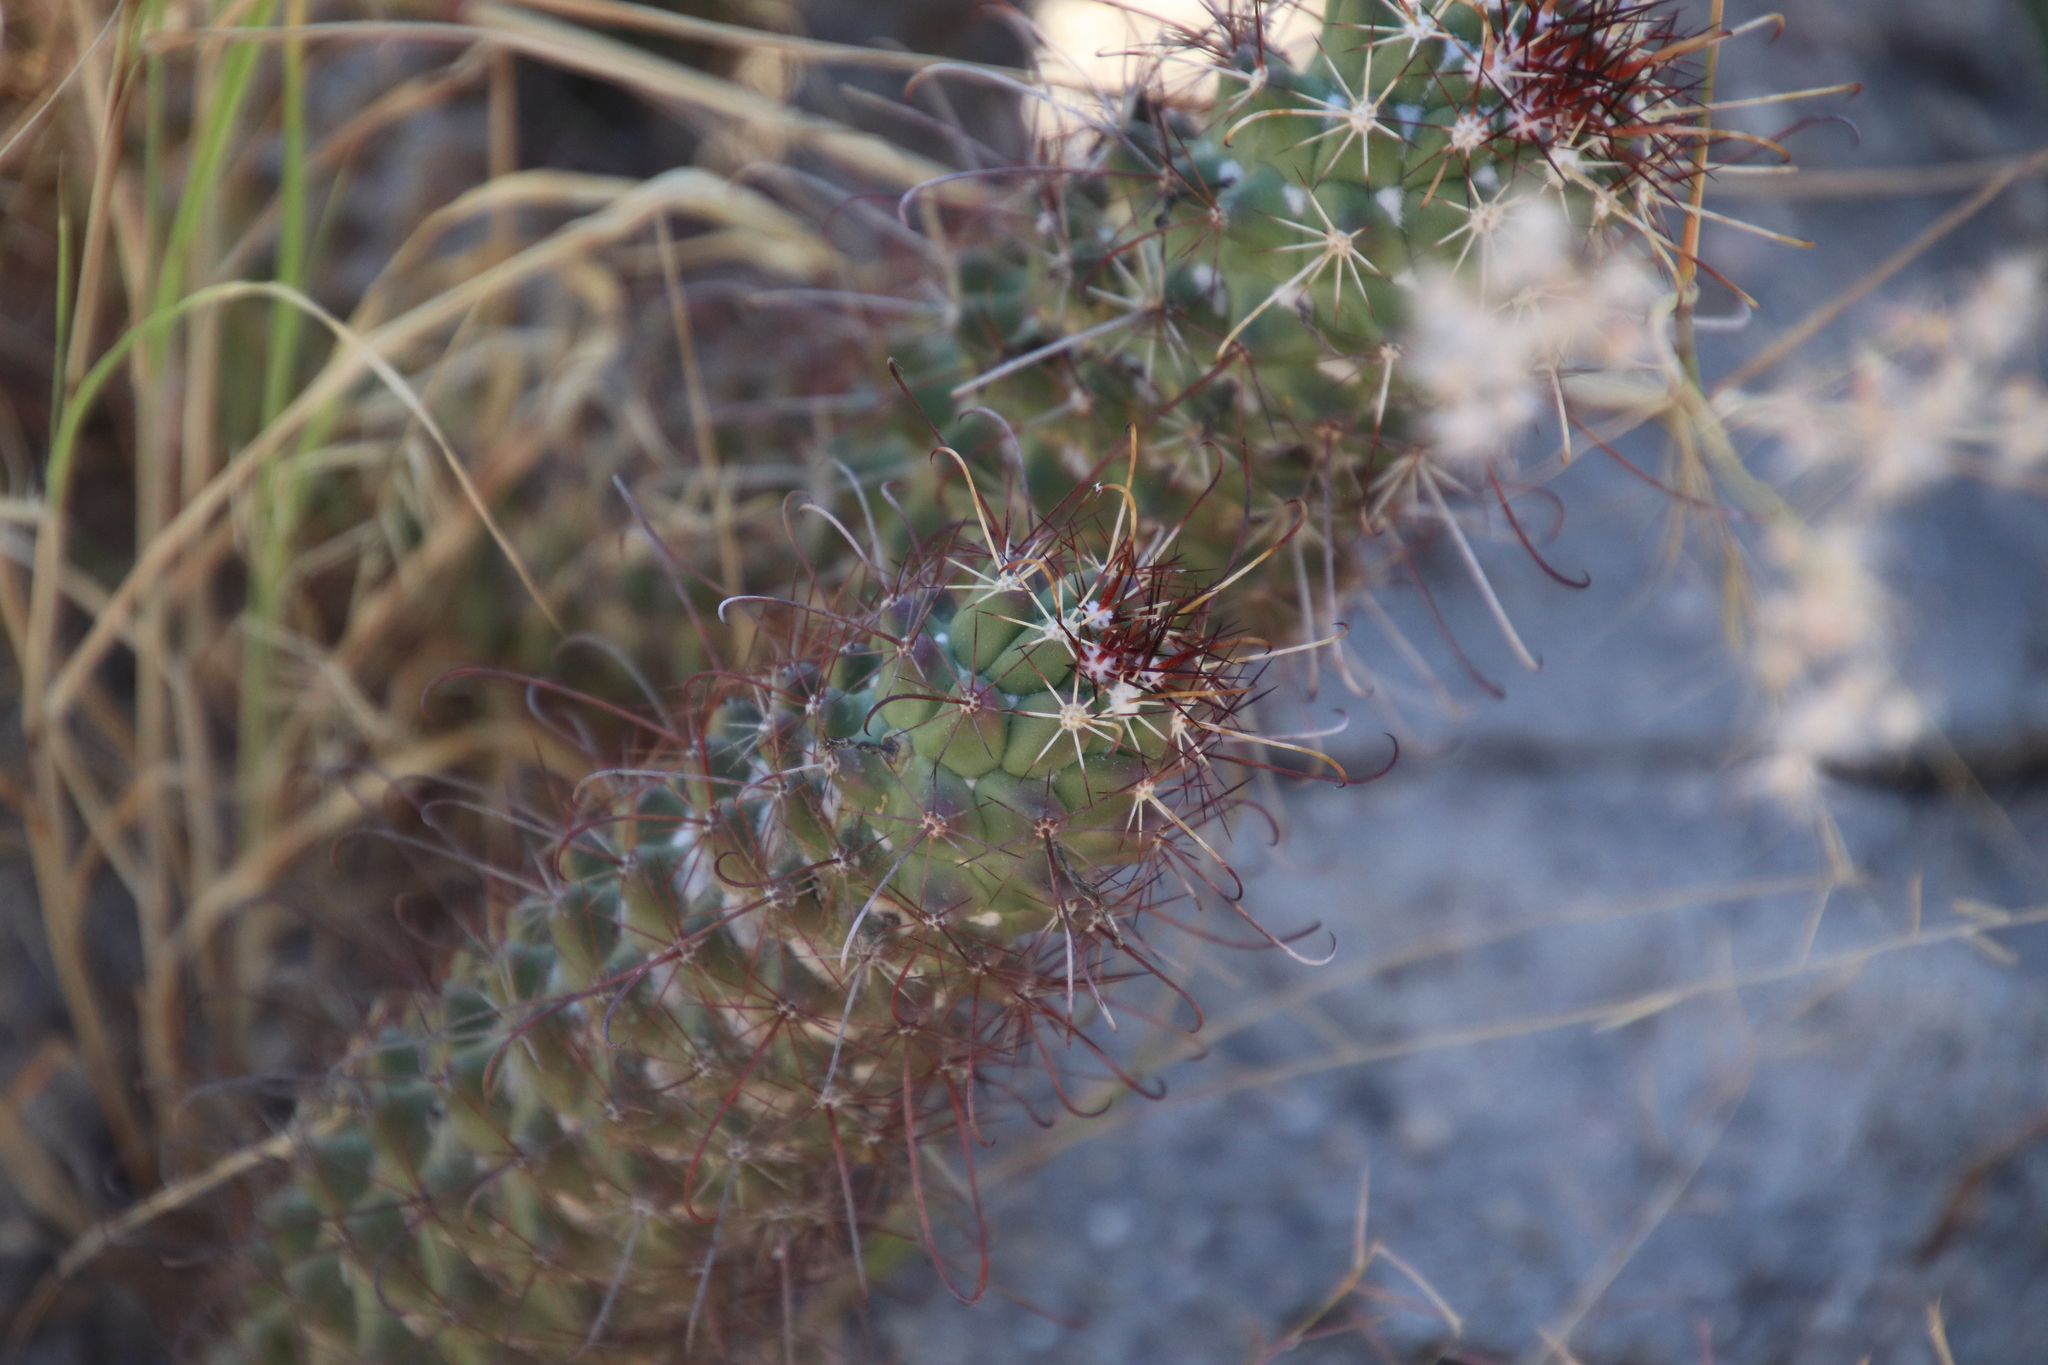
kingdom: Plantae
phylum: Tracheophyta
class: Magnoliopsida
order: Caryophyllales
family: Cactaceae
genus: Cochemiea
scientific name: Cochemiea poselgeri
